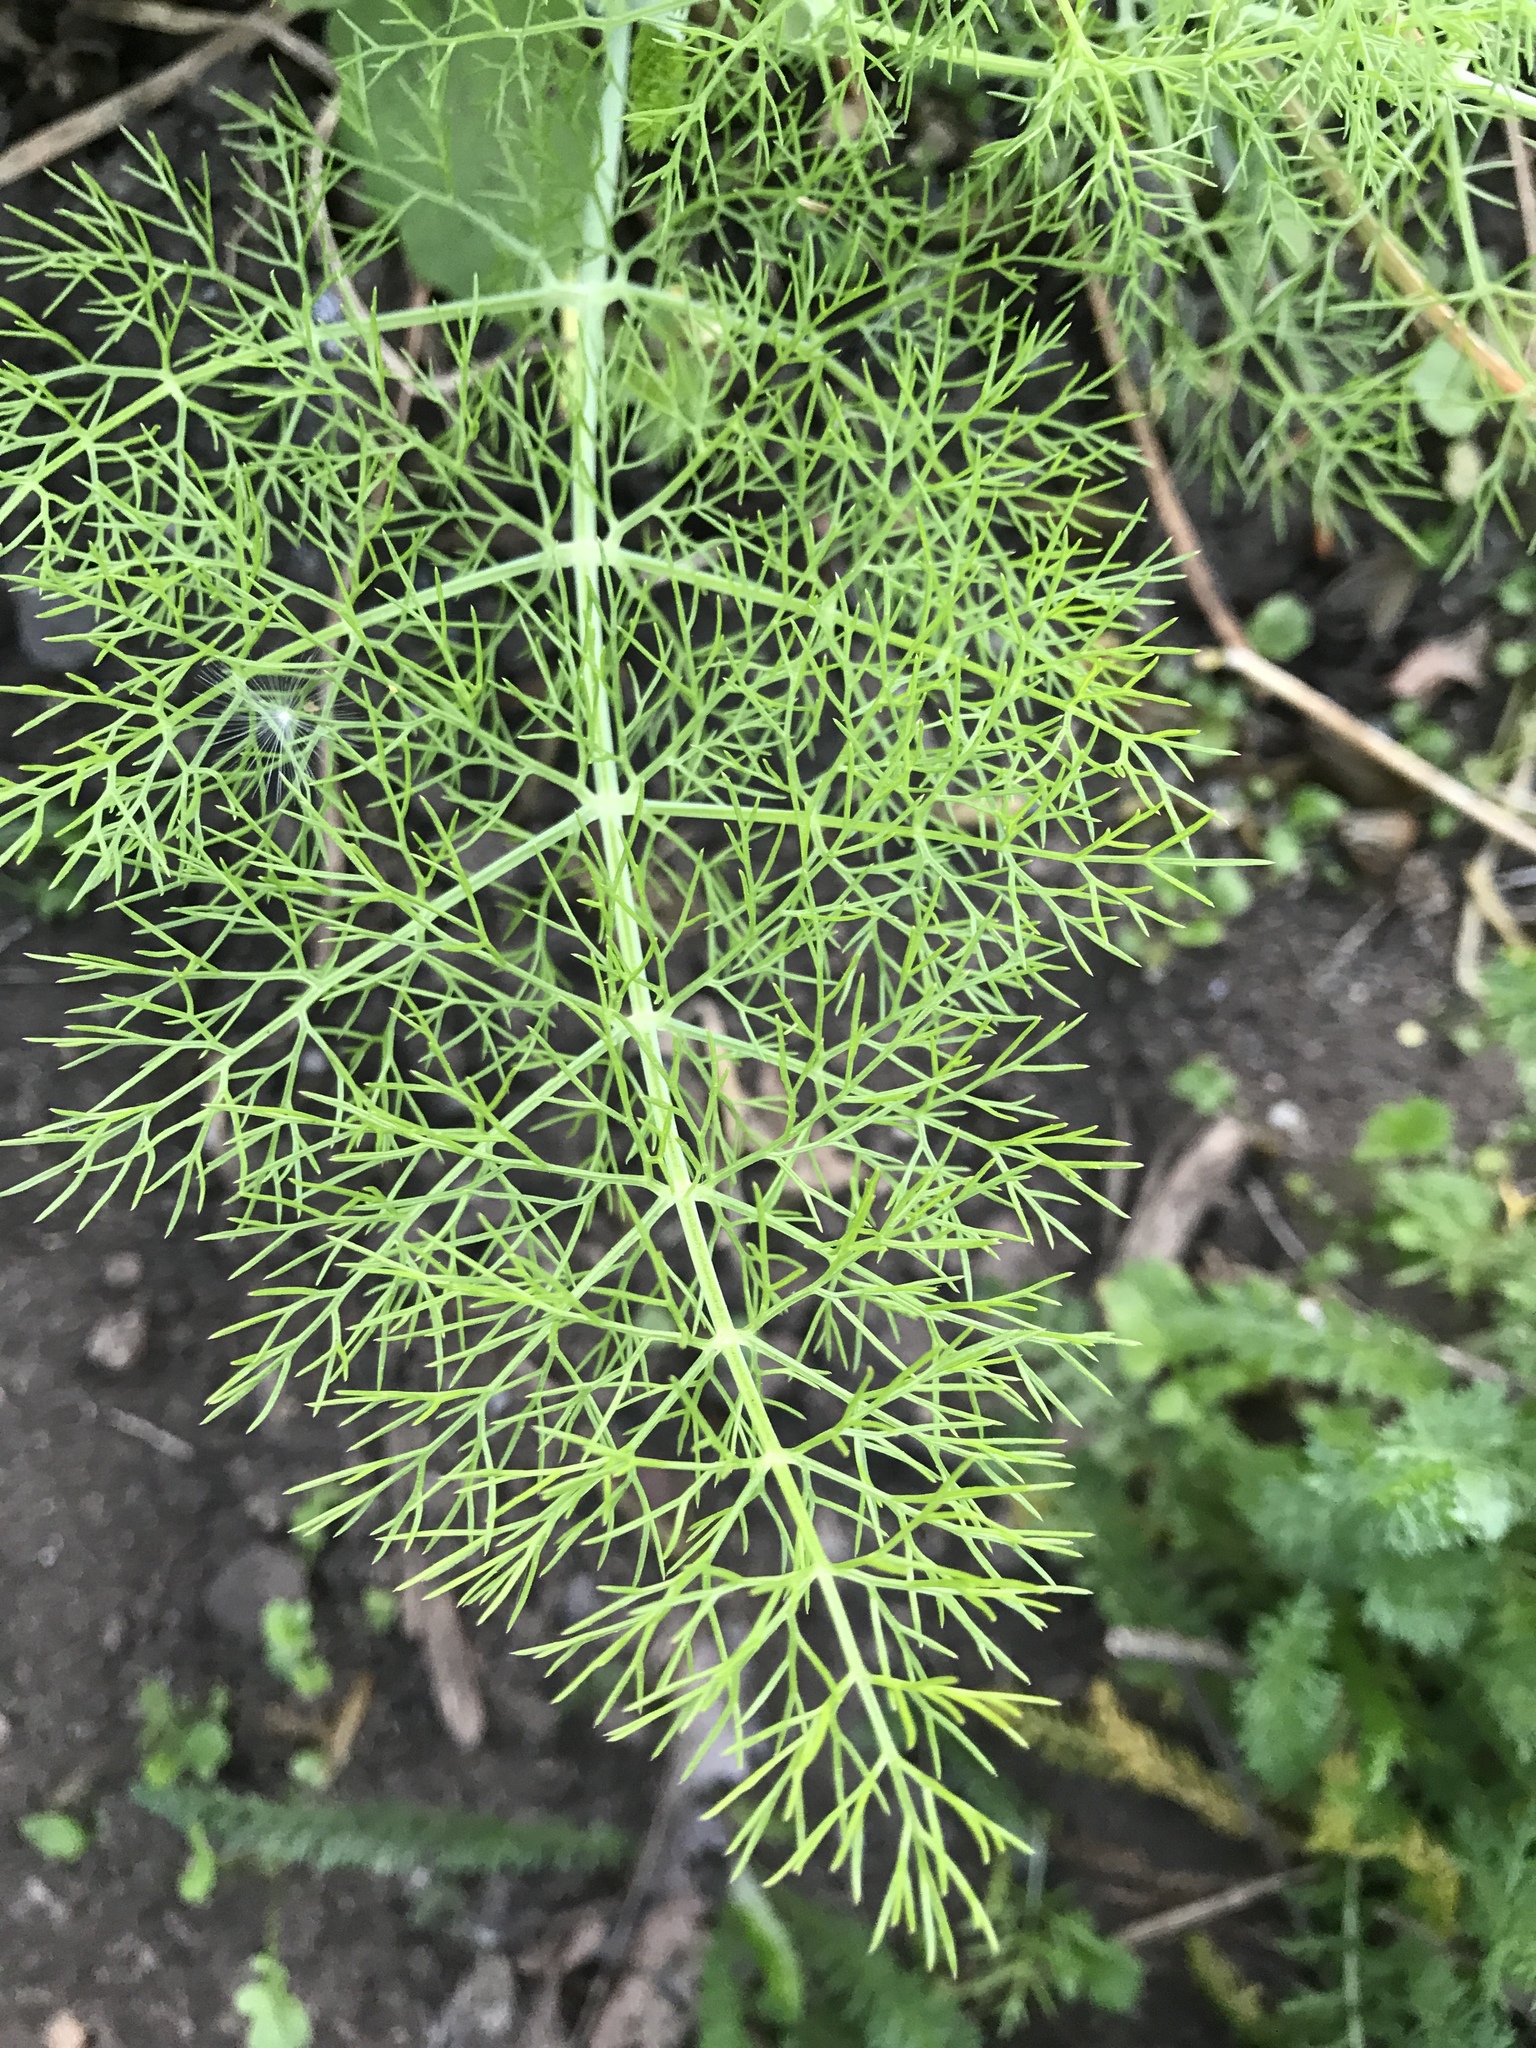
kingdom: Plantae
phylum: Tracheophyta
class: Magnoliopsida
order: Apiales
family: Apiaceae
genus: Foeniculum
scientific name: Foeniculum vulgare
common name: Fennel
